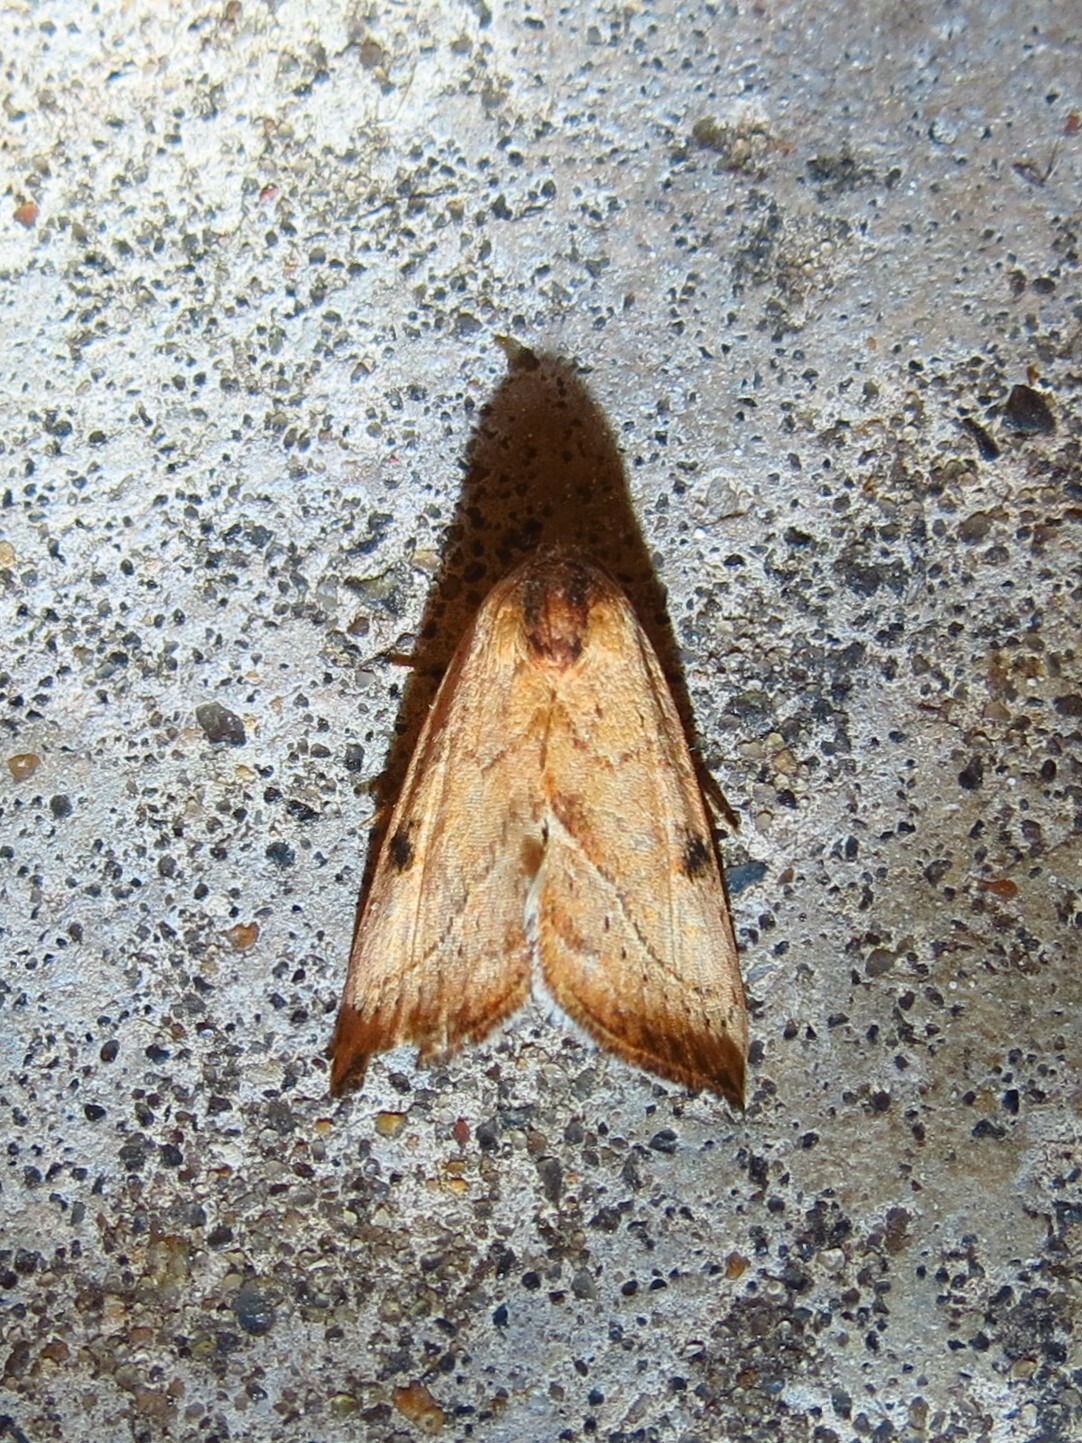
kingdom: Animalia
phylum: Arthropoda
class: Insecta
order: Lepidoptera
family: Noctuidae
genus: Galgula
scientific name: Galgula partita
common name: Wedgeling
